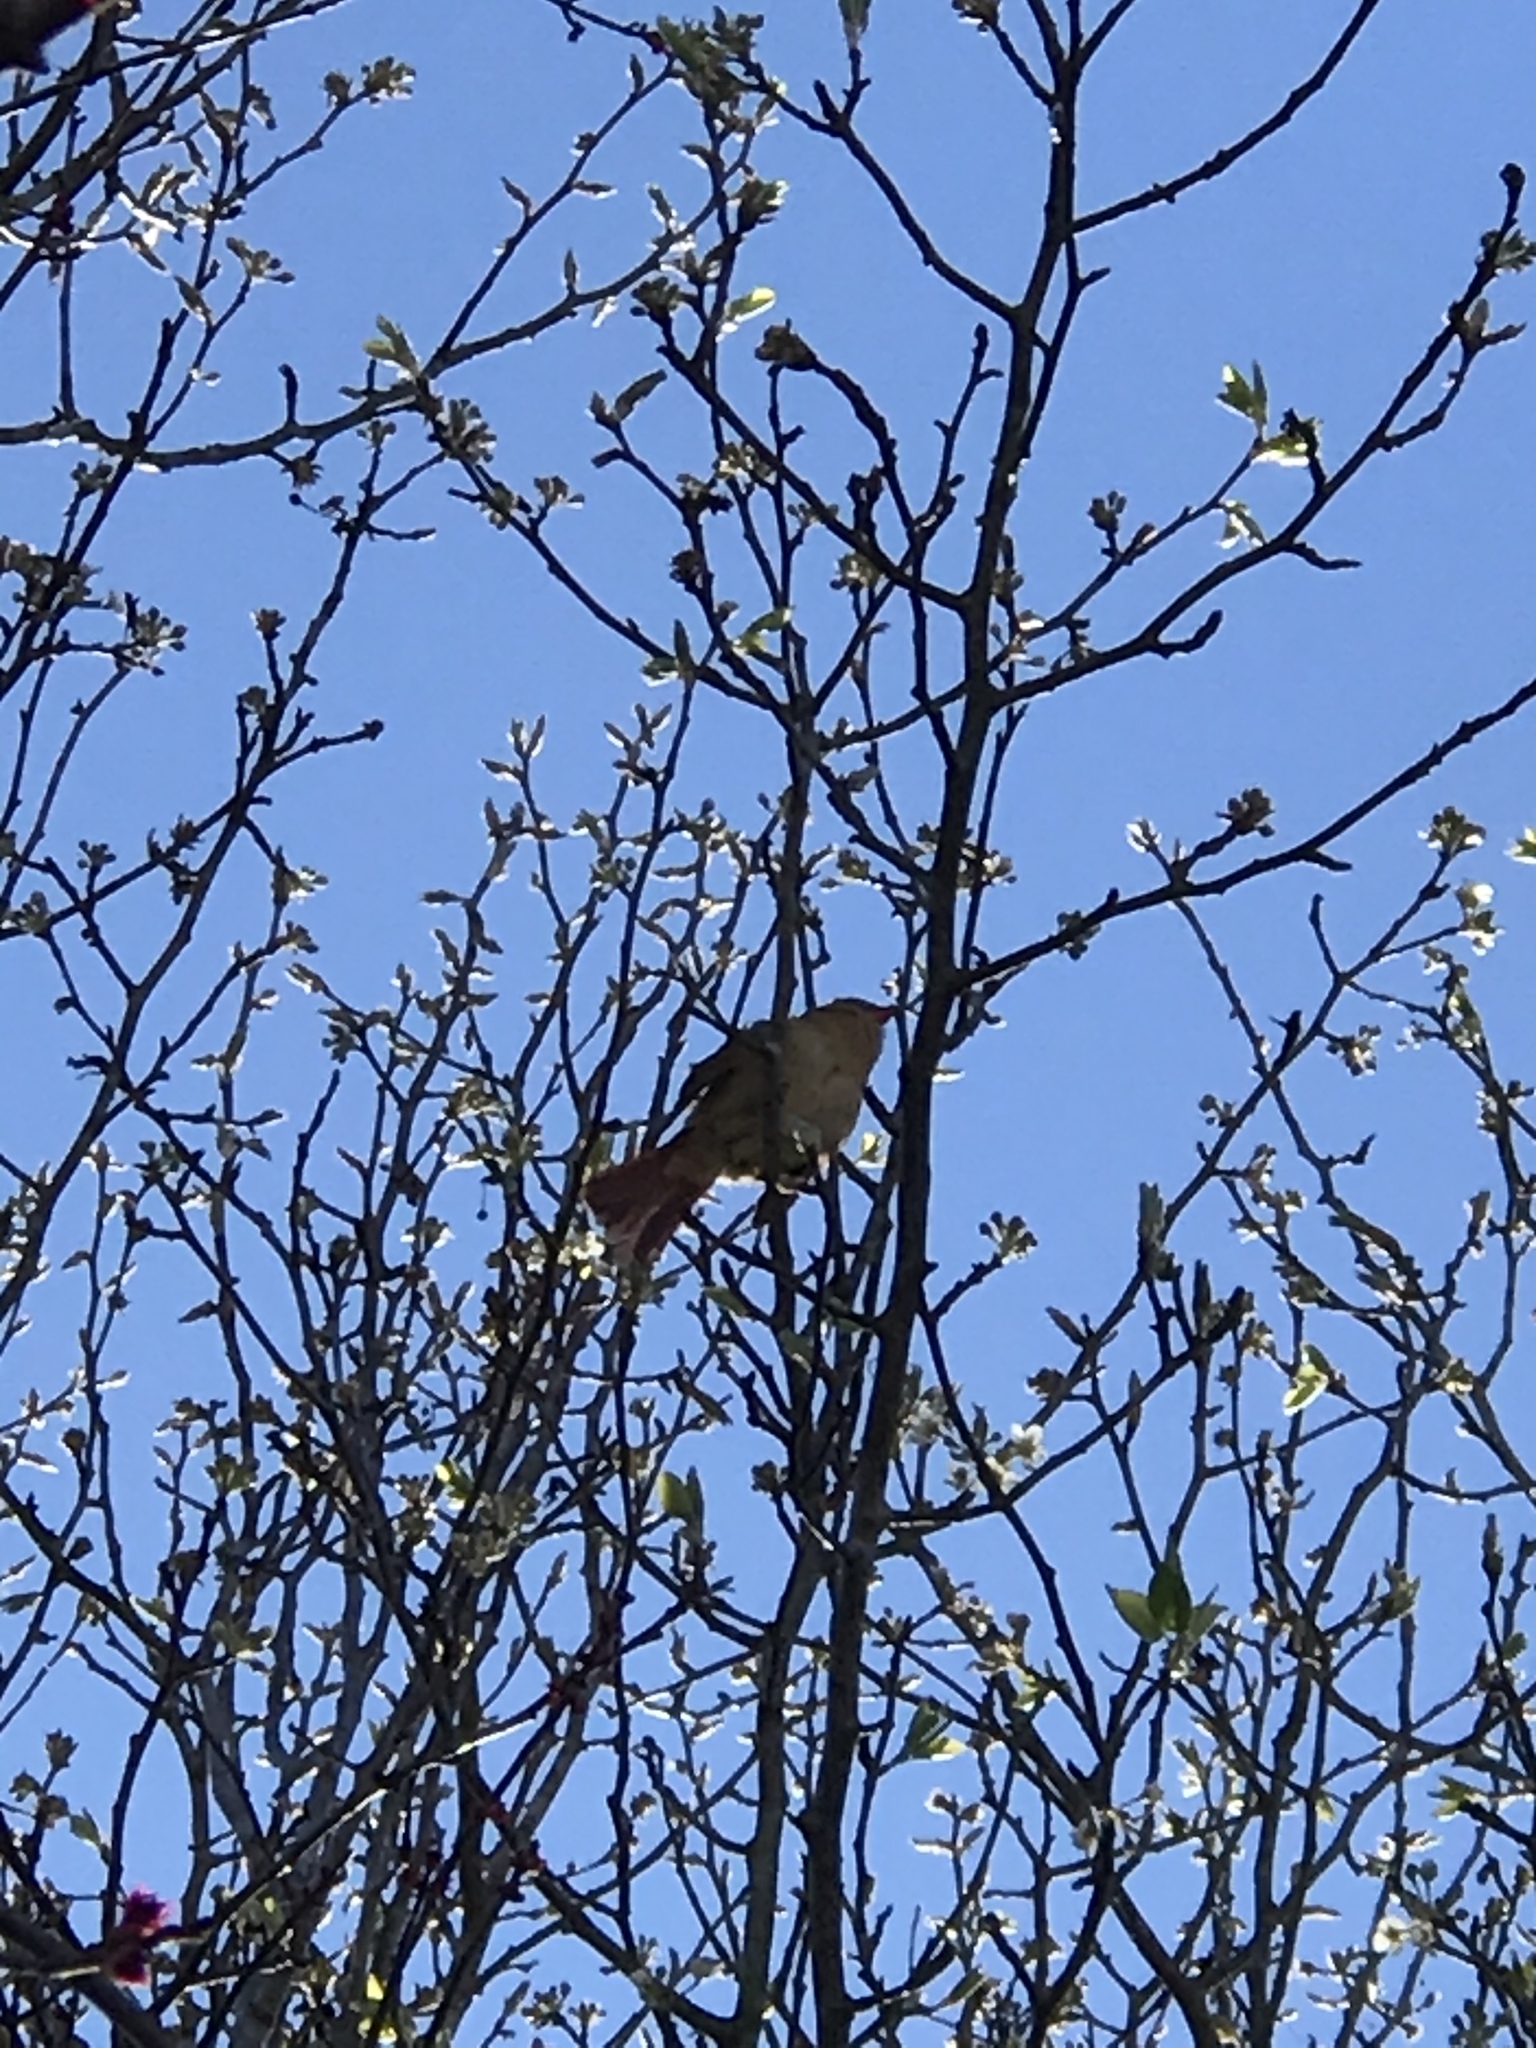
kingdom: Animalia
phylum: Chordata
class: Aves
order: Passeriformes
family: Cardinalidae
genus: Cardinalis
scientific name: Cardinalis cardinalis
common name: Northern cardinal
